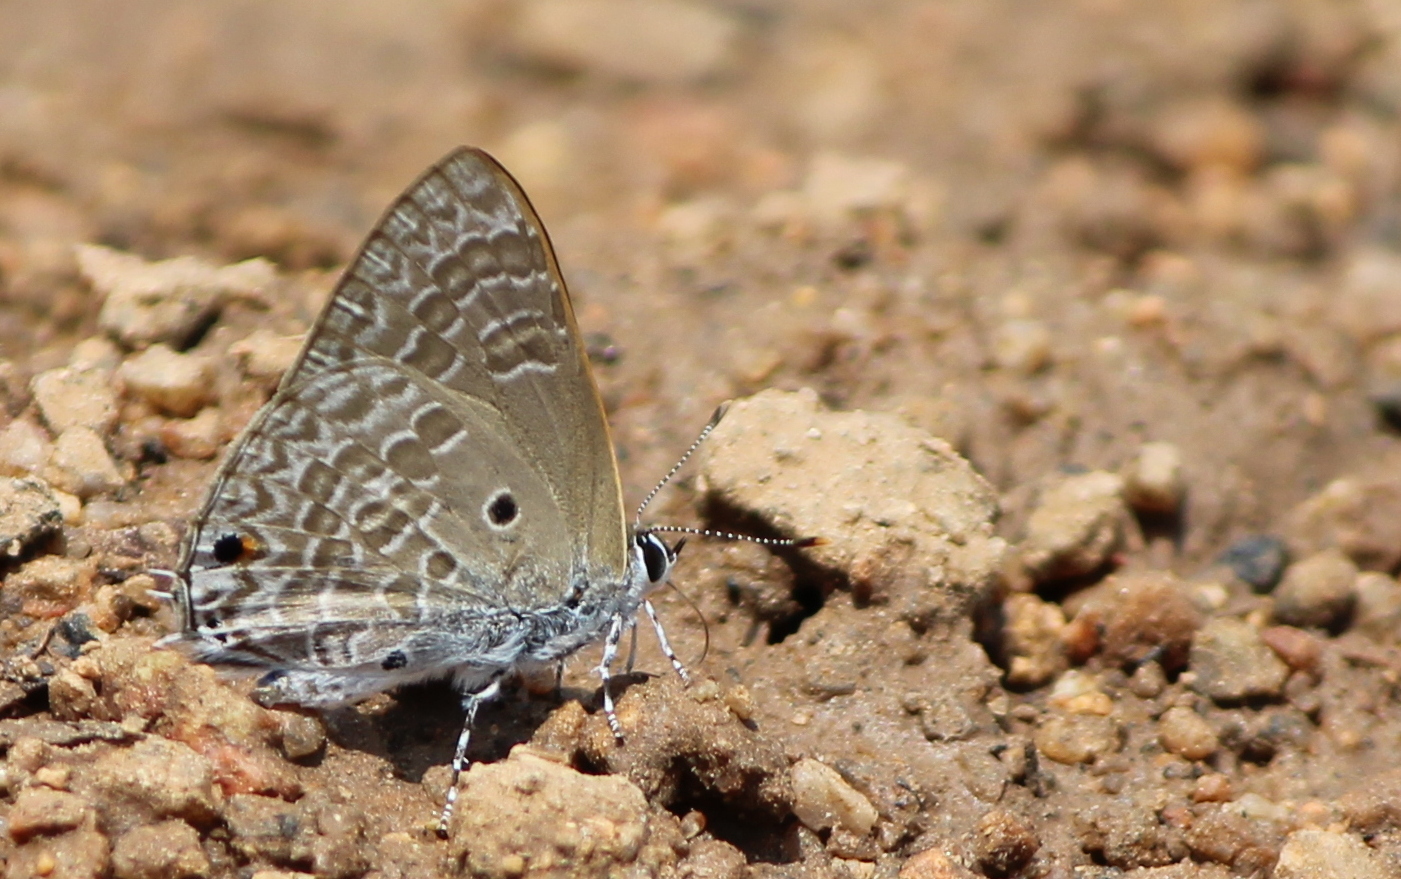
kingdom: Animalia
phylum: Arthropoda
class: Insecta
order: Lepidoptera
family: Lycaenidae
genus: Anthene
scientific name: Anthene lycaenina
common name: Pointed ciliate blue
